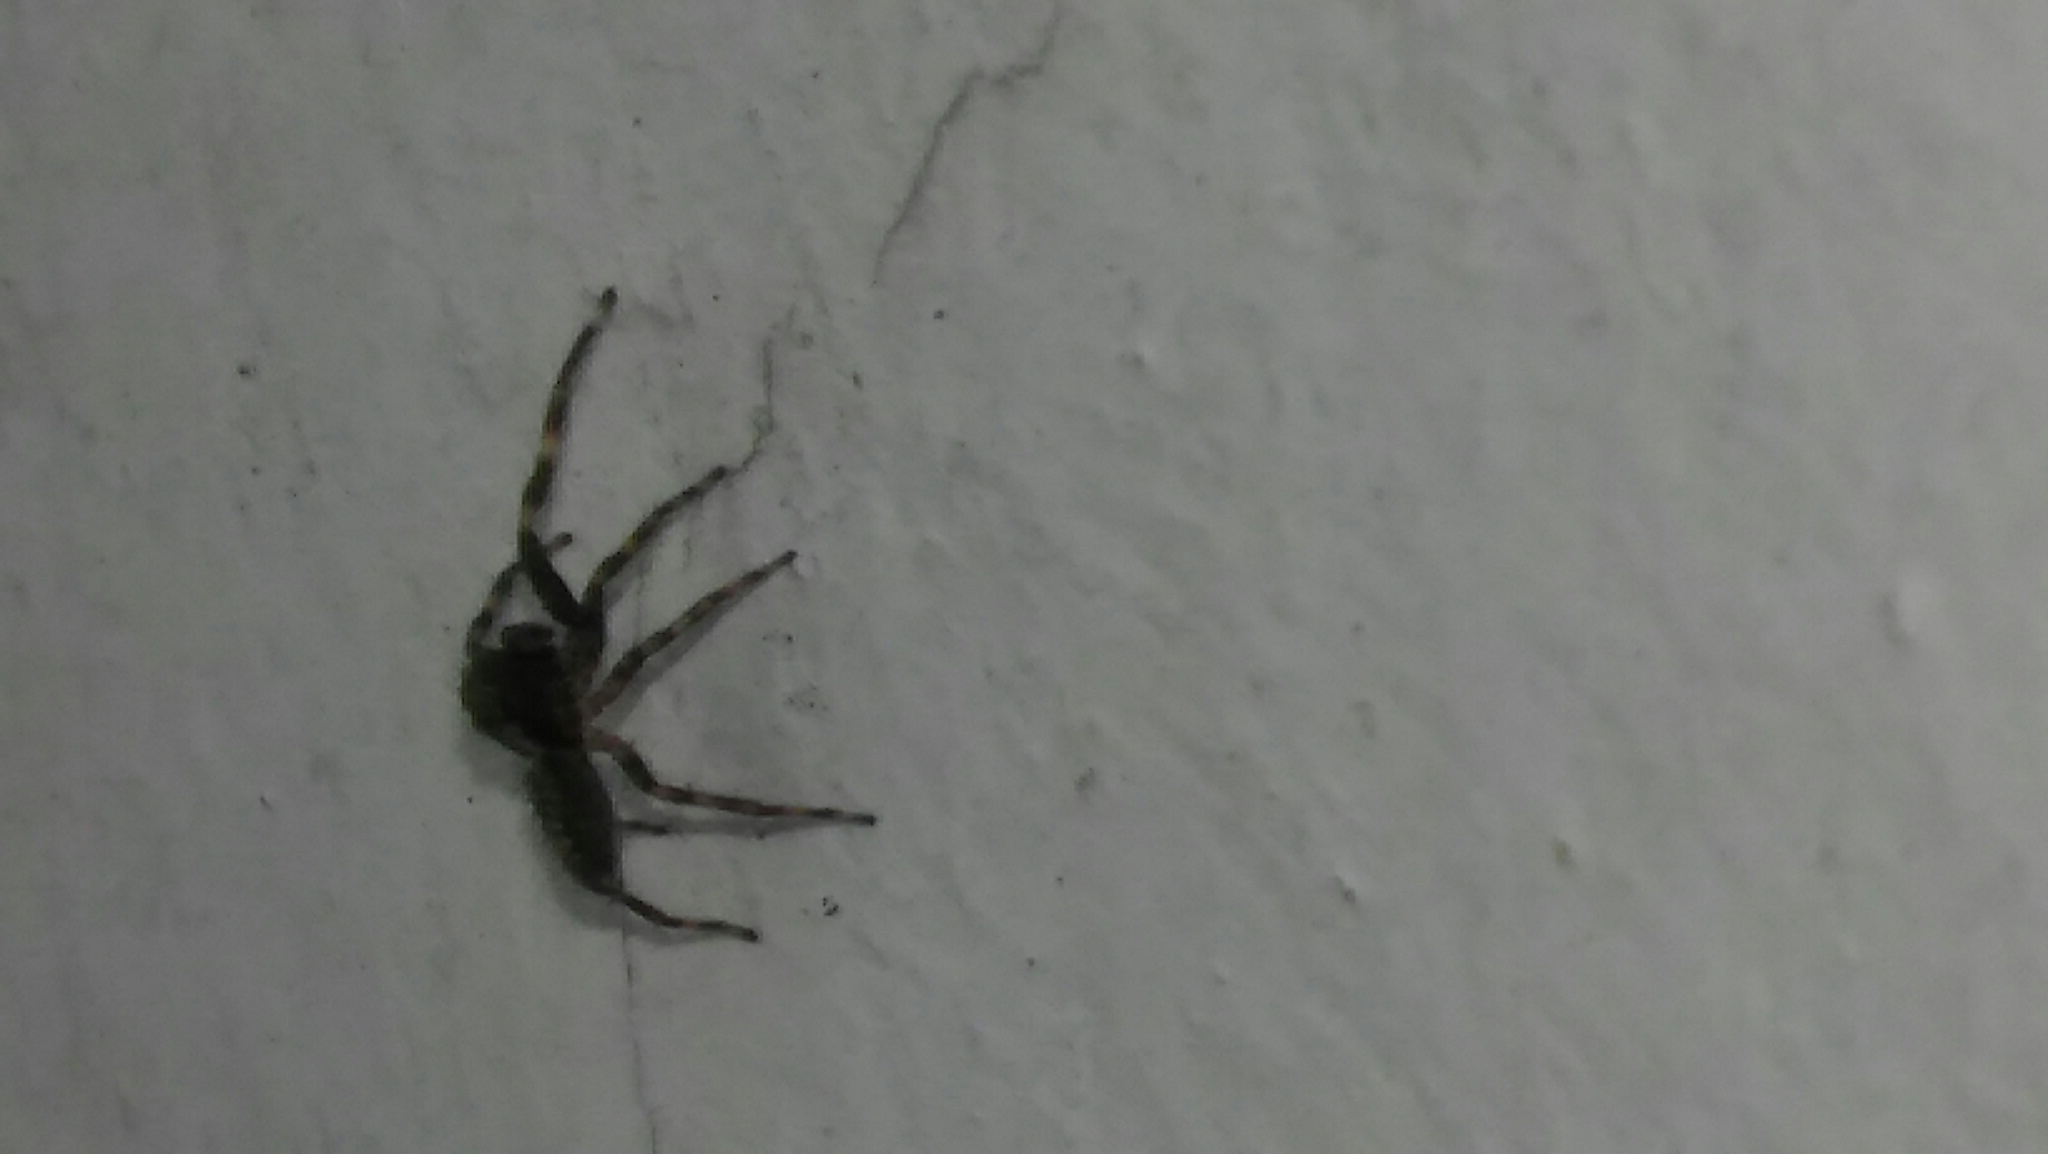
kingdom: Animalia
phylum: Arthropoda
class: Arachnida
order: Araneae
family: Salticidae
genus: Titanattus
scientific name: Titanattus andinus
